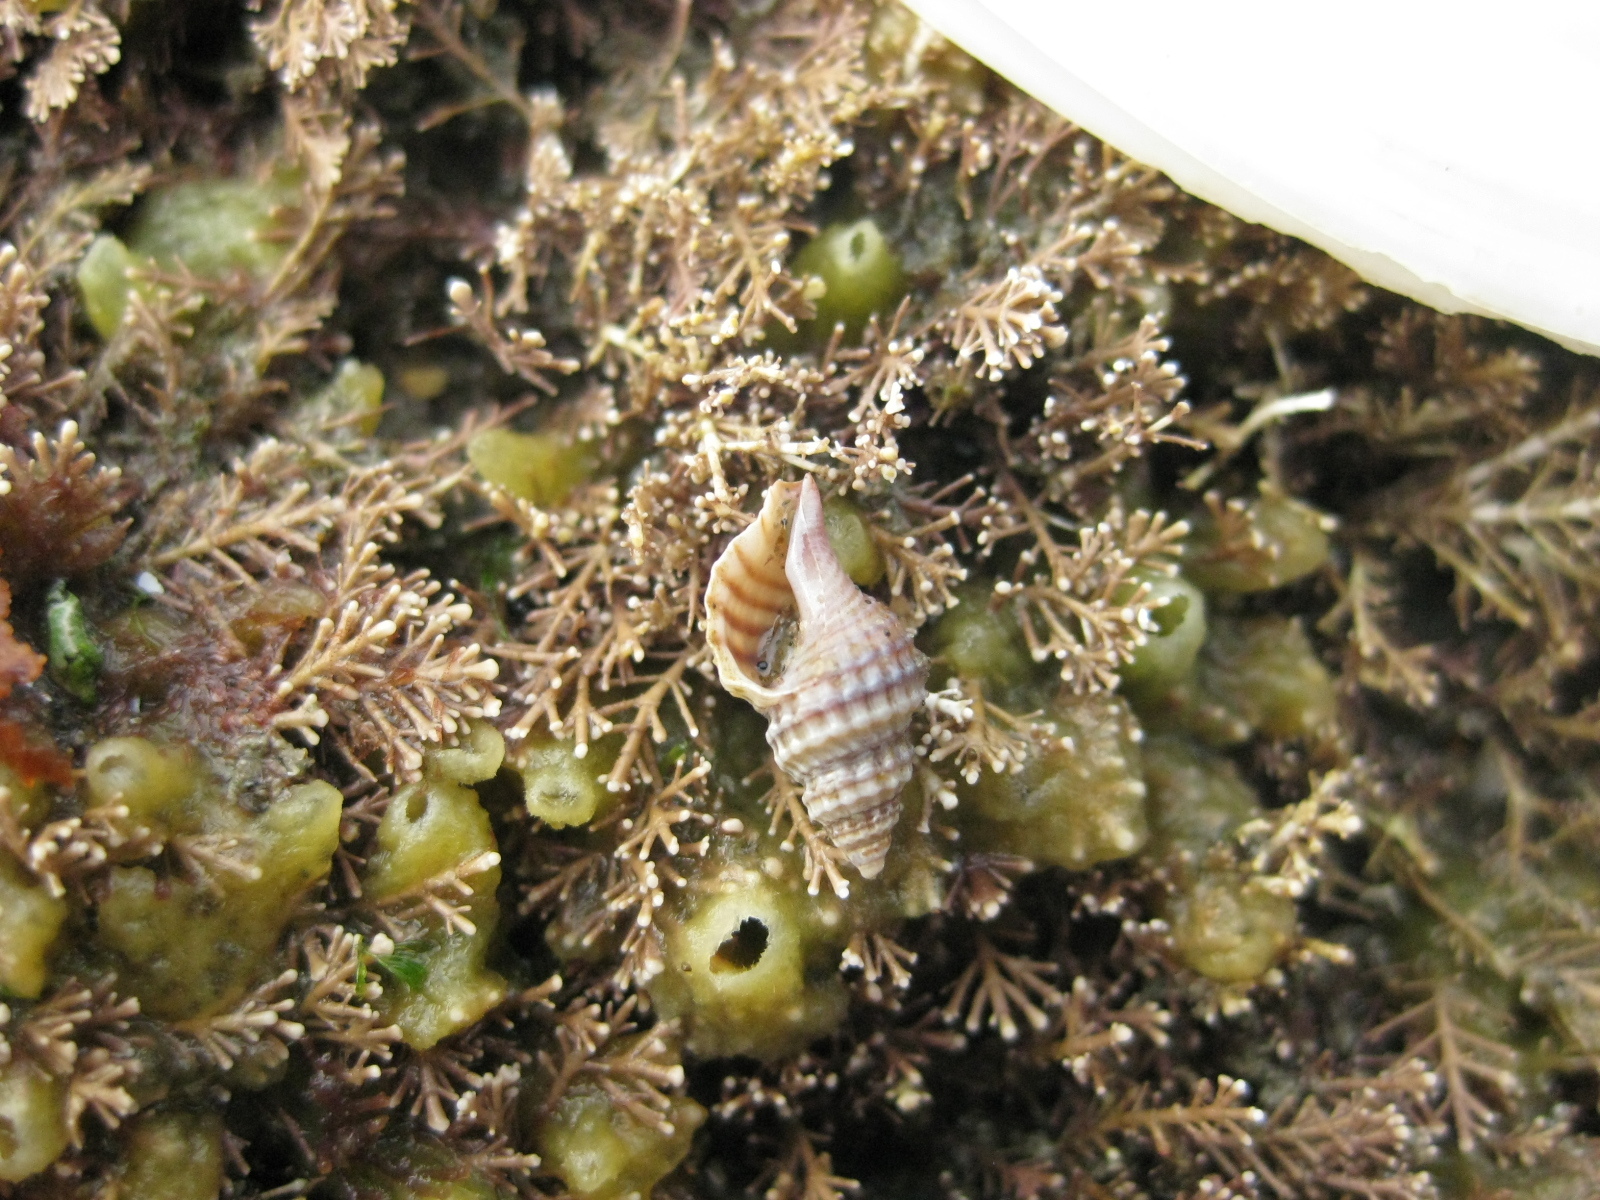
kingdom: Animalia
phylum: Mollusca
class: Gastropoda
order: Neogastropoda
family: Muricidae
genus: Xymene
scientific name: Xymene plebeius
